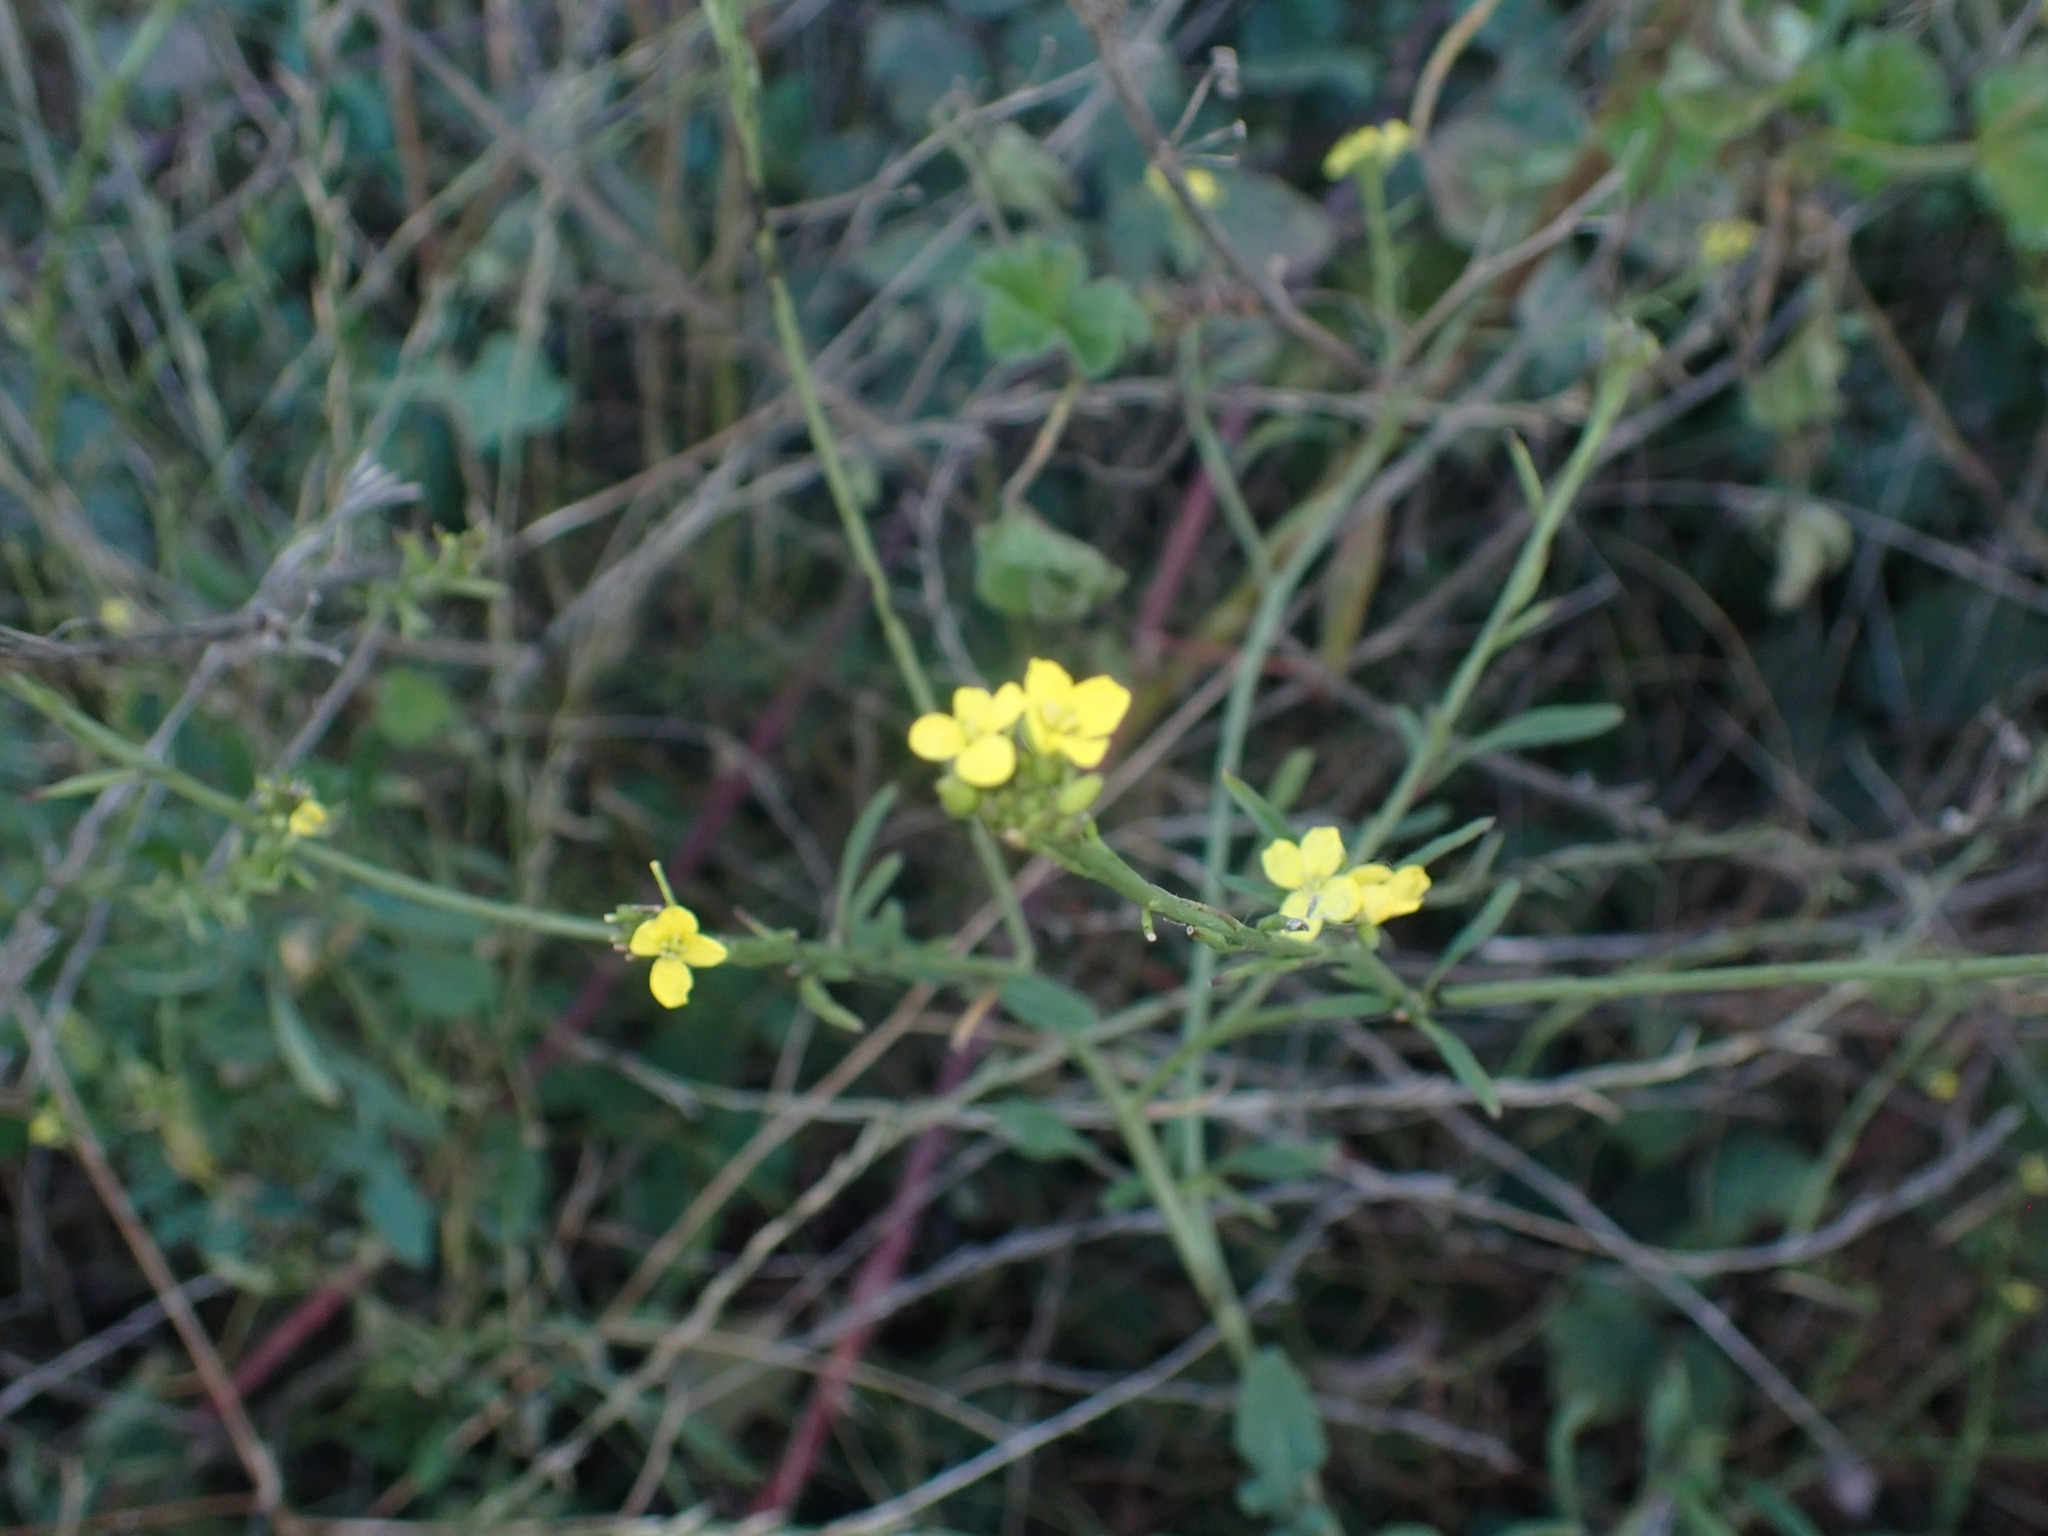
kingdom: Plantae
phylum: Tracheophyta
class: Magnoliopsida
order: Brassicales
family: Brassicaceae
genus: Hirschfeldia
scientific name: Hirschfeldia incana
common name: Hoary mustard
